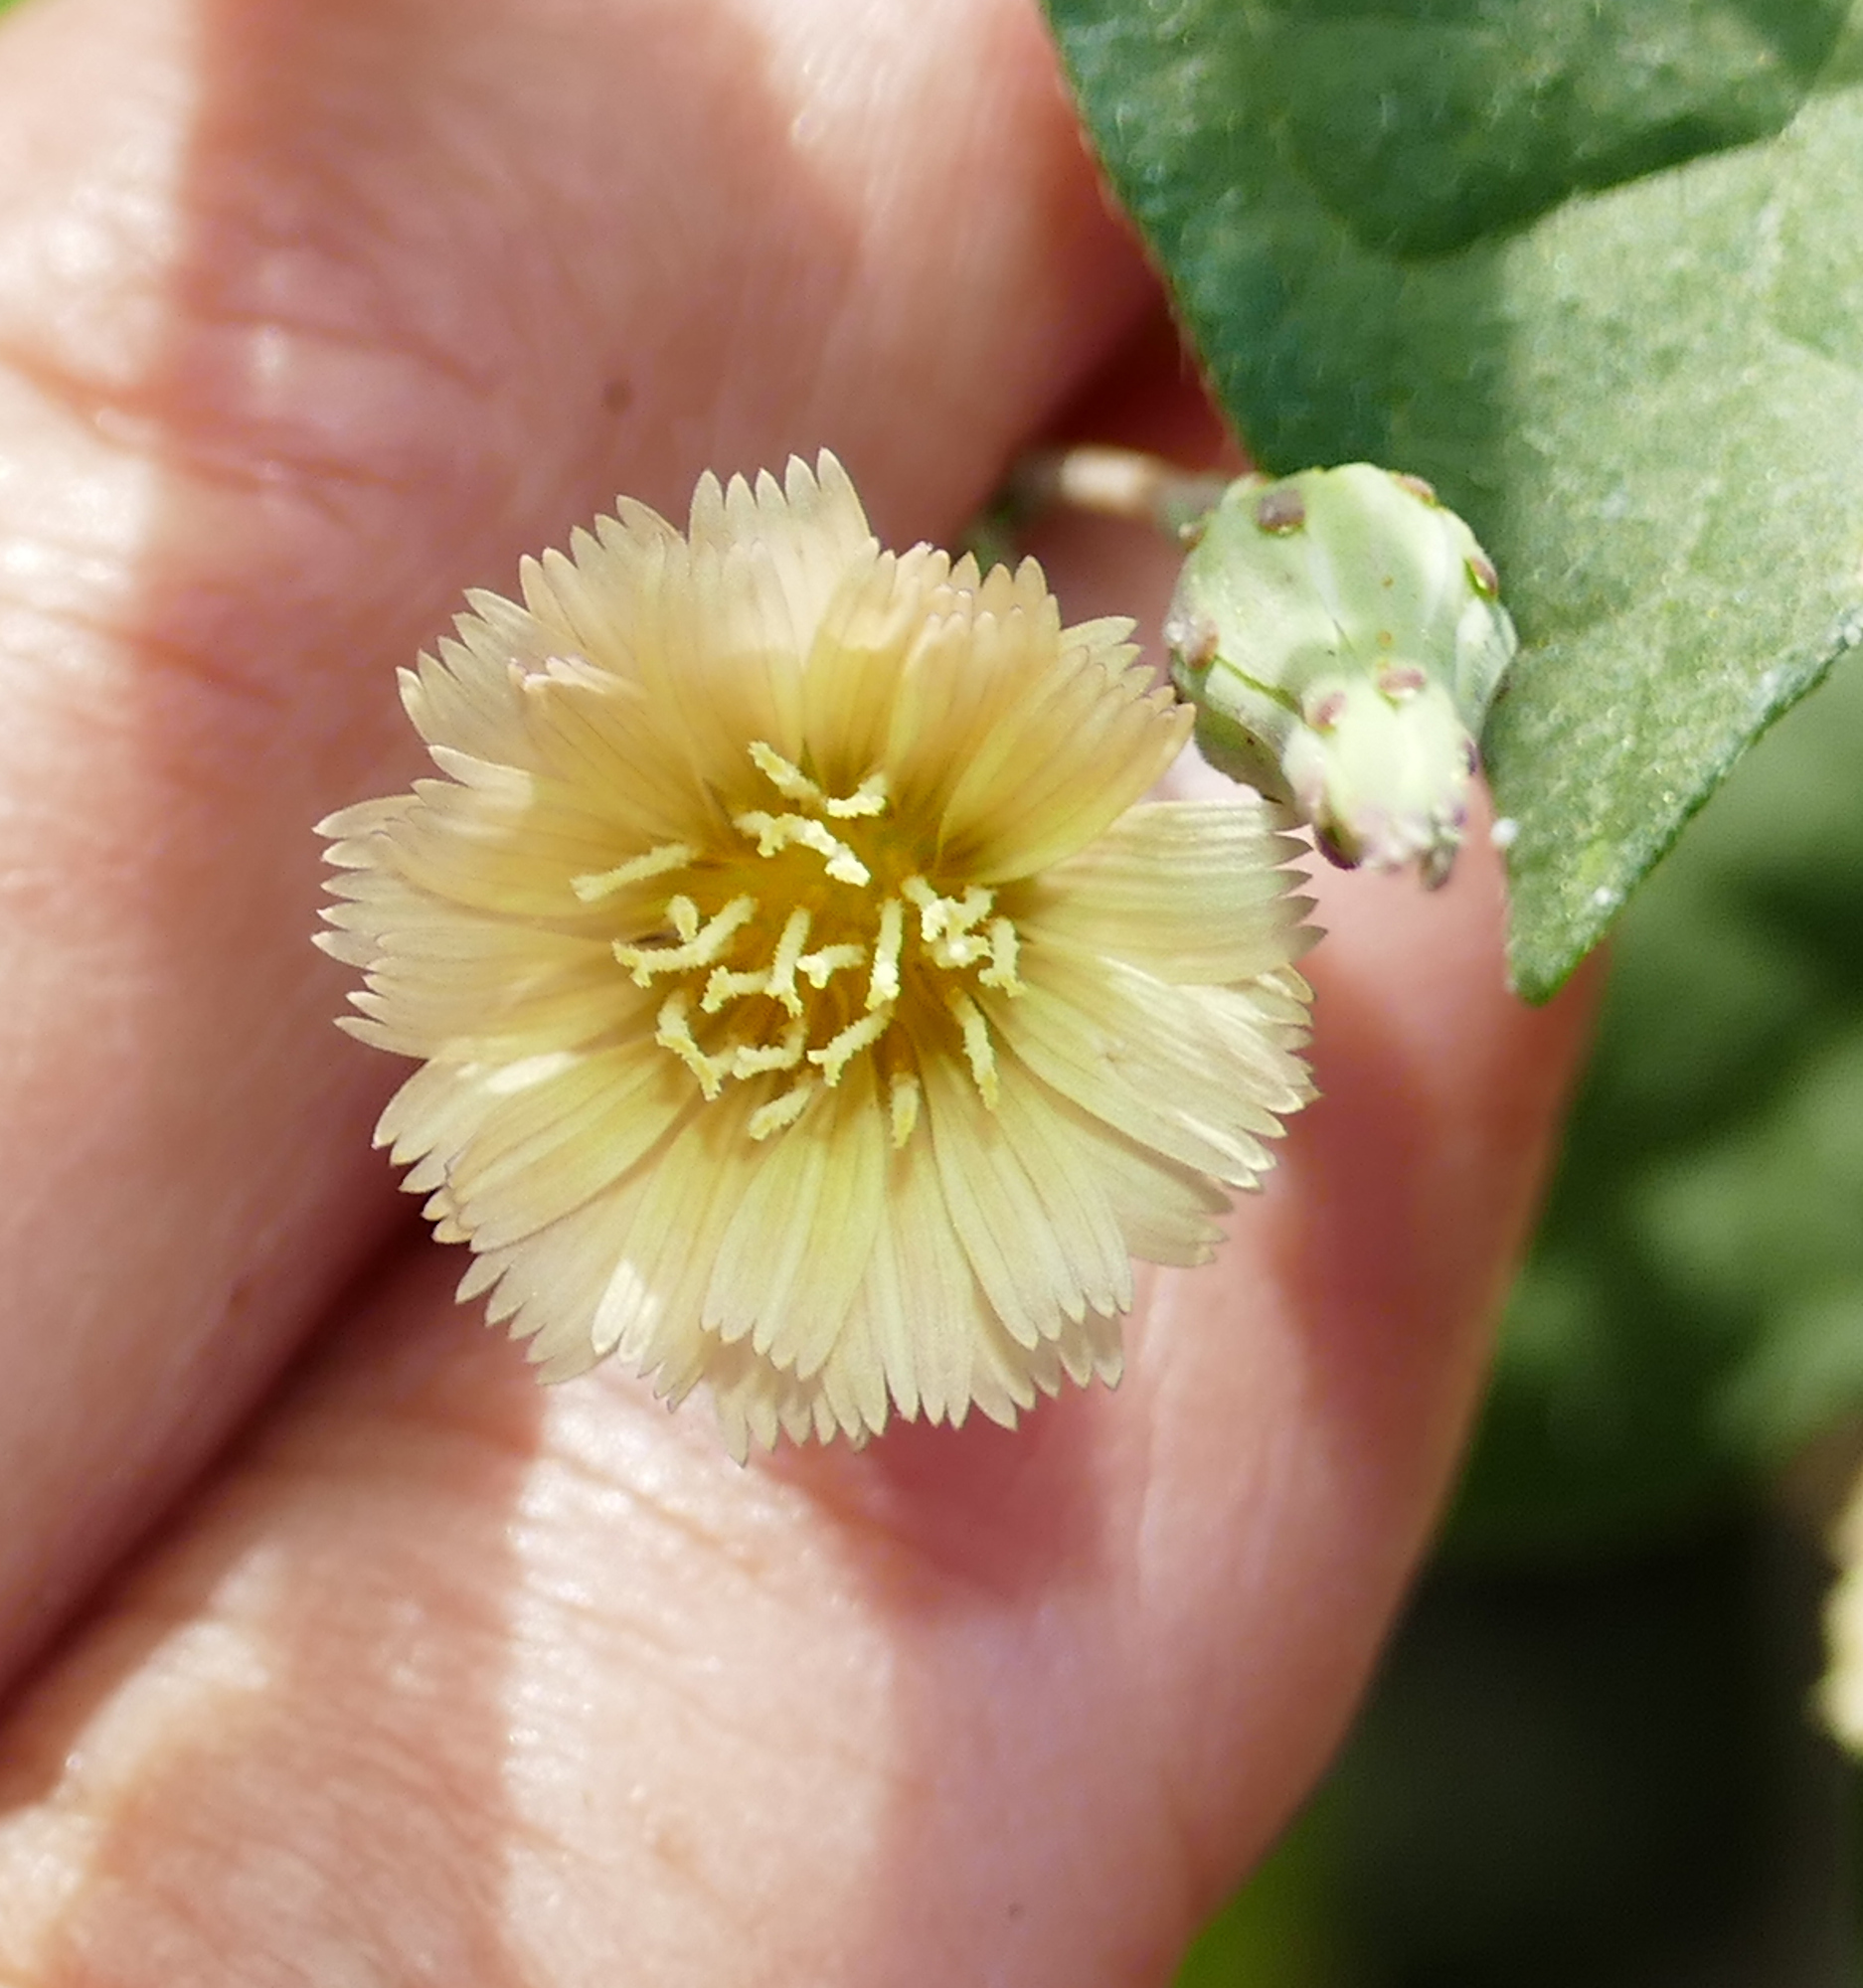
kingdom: Plantae
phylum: Tracheophyta
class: Magnoliopsida
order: Asterales
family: Asteraceae
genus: Lactuca
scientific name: Lactuca serriola
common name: Prickly lettuce
